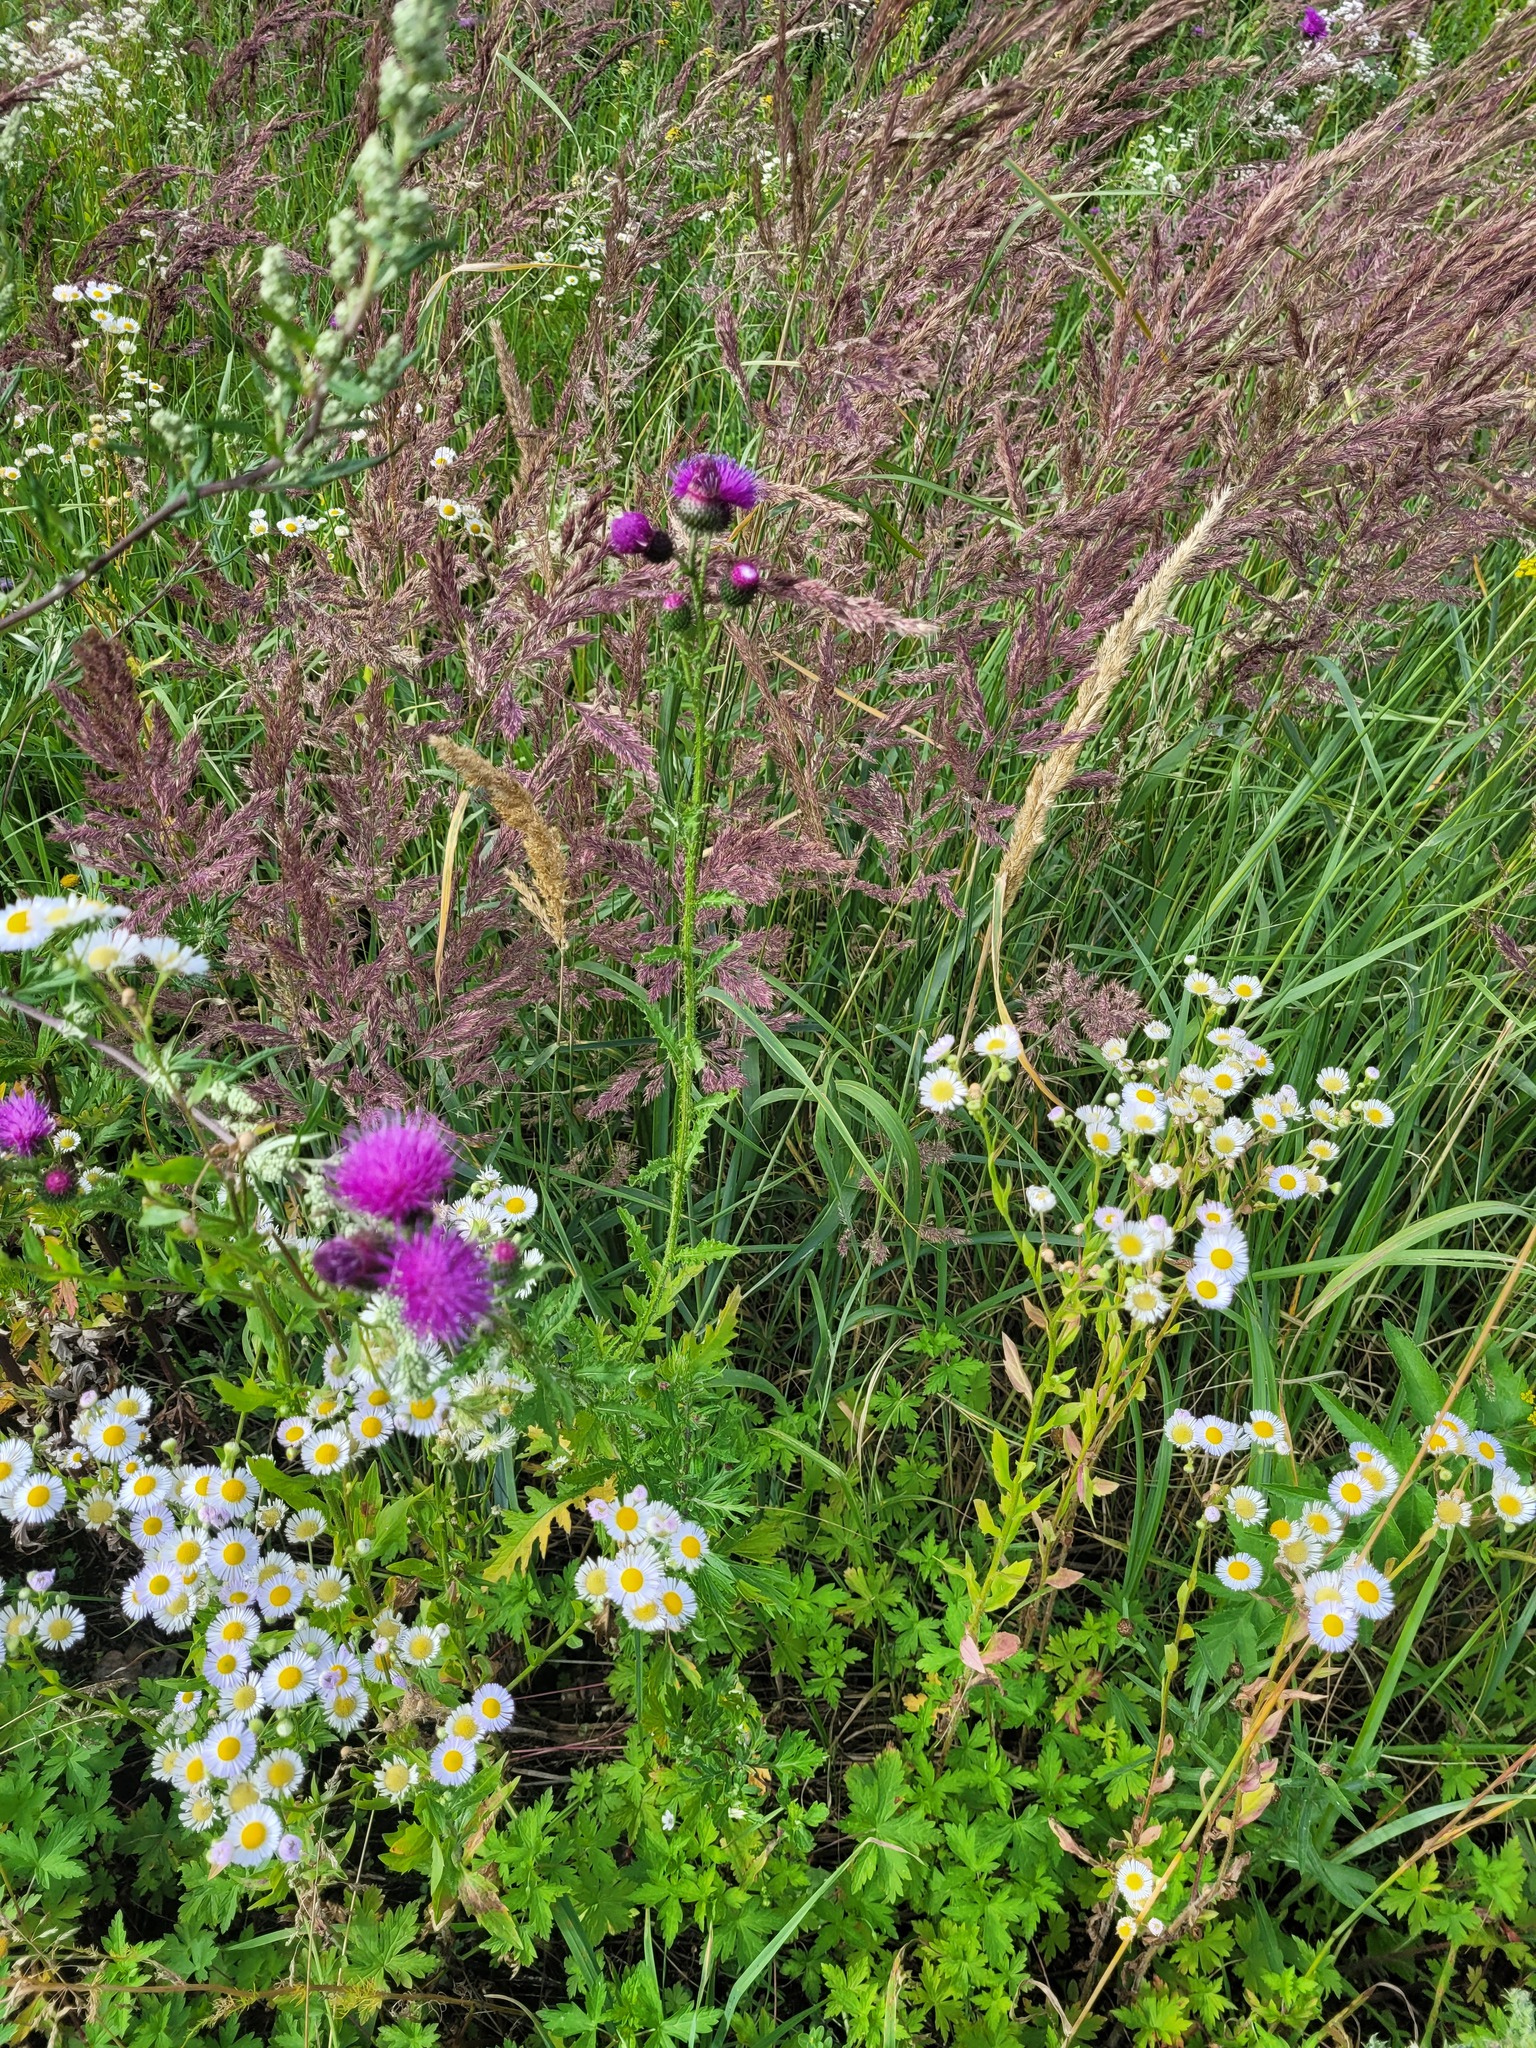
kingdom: Plantae
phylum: Tracheophyta
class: Magnoliopsida
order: Asterales
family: Asteraceae
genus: Carduus
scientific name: Carduus crispus
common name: Welted thistle
